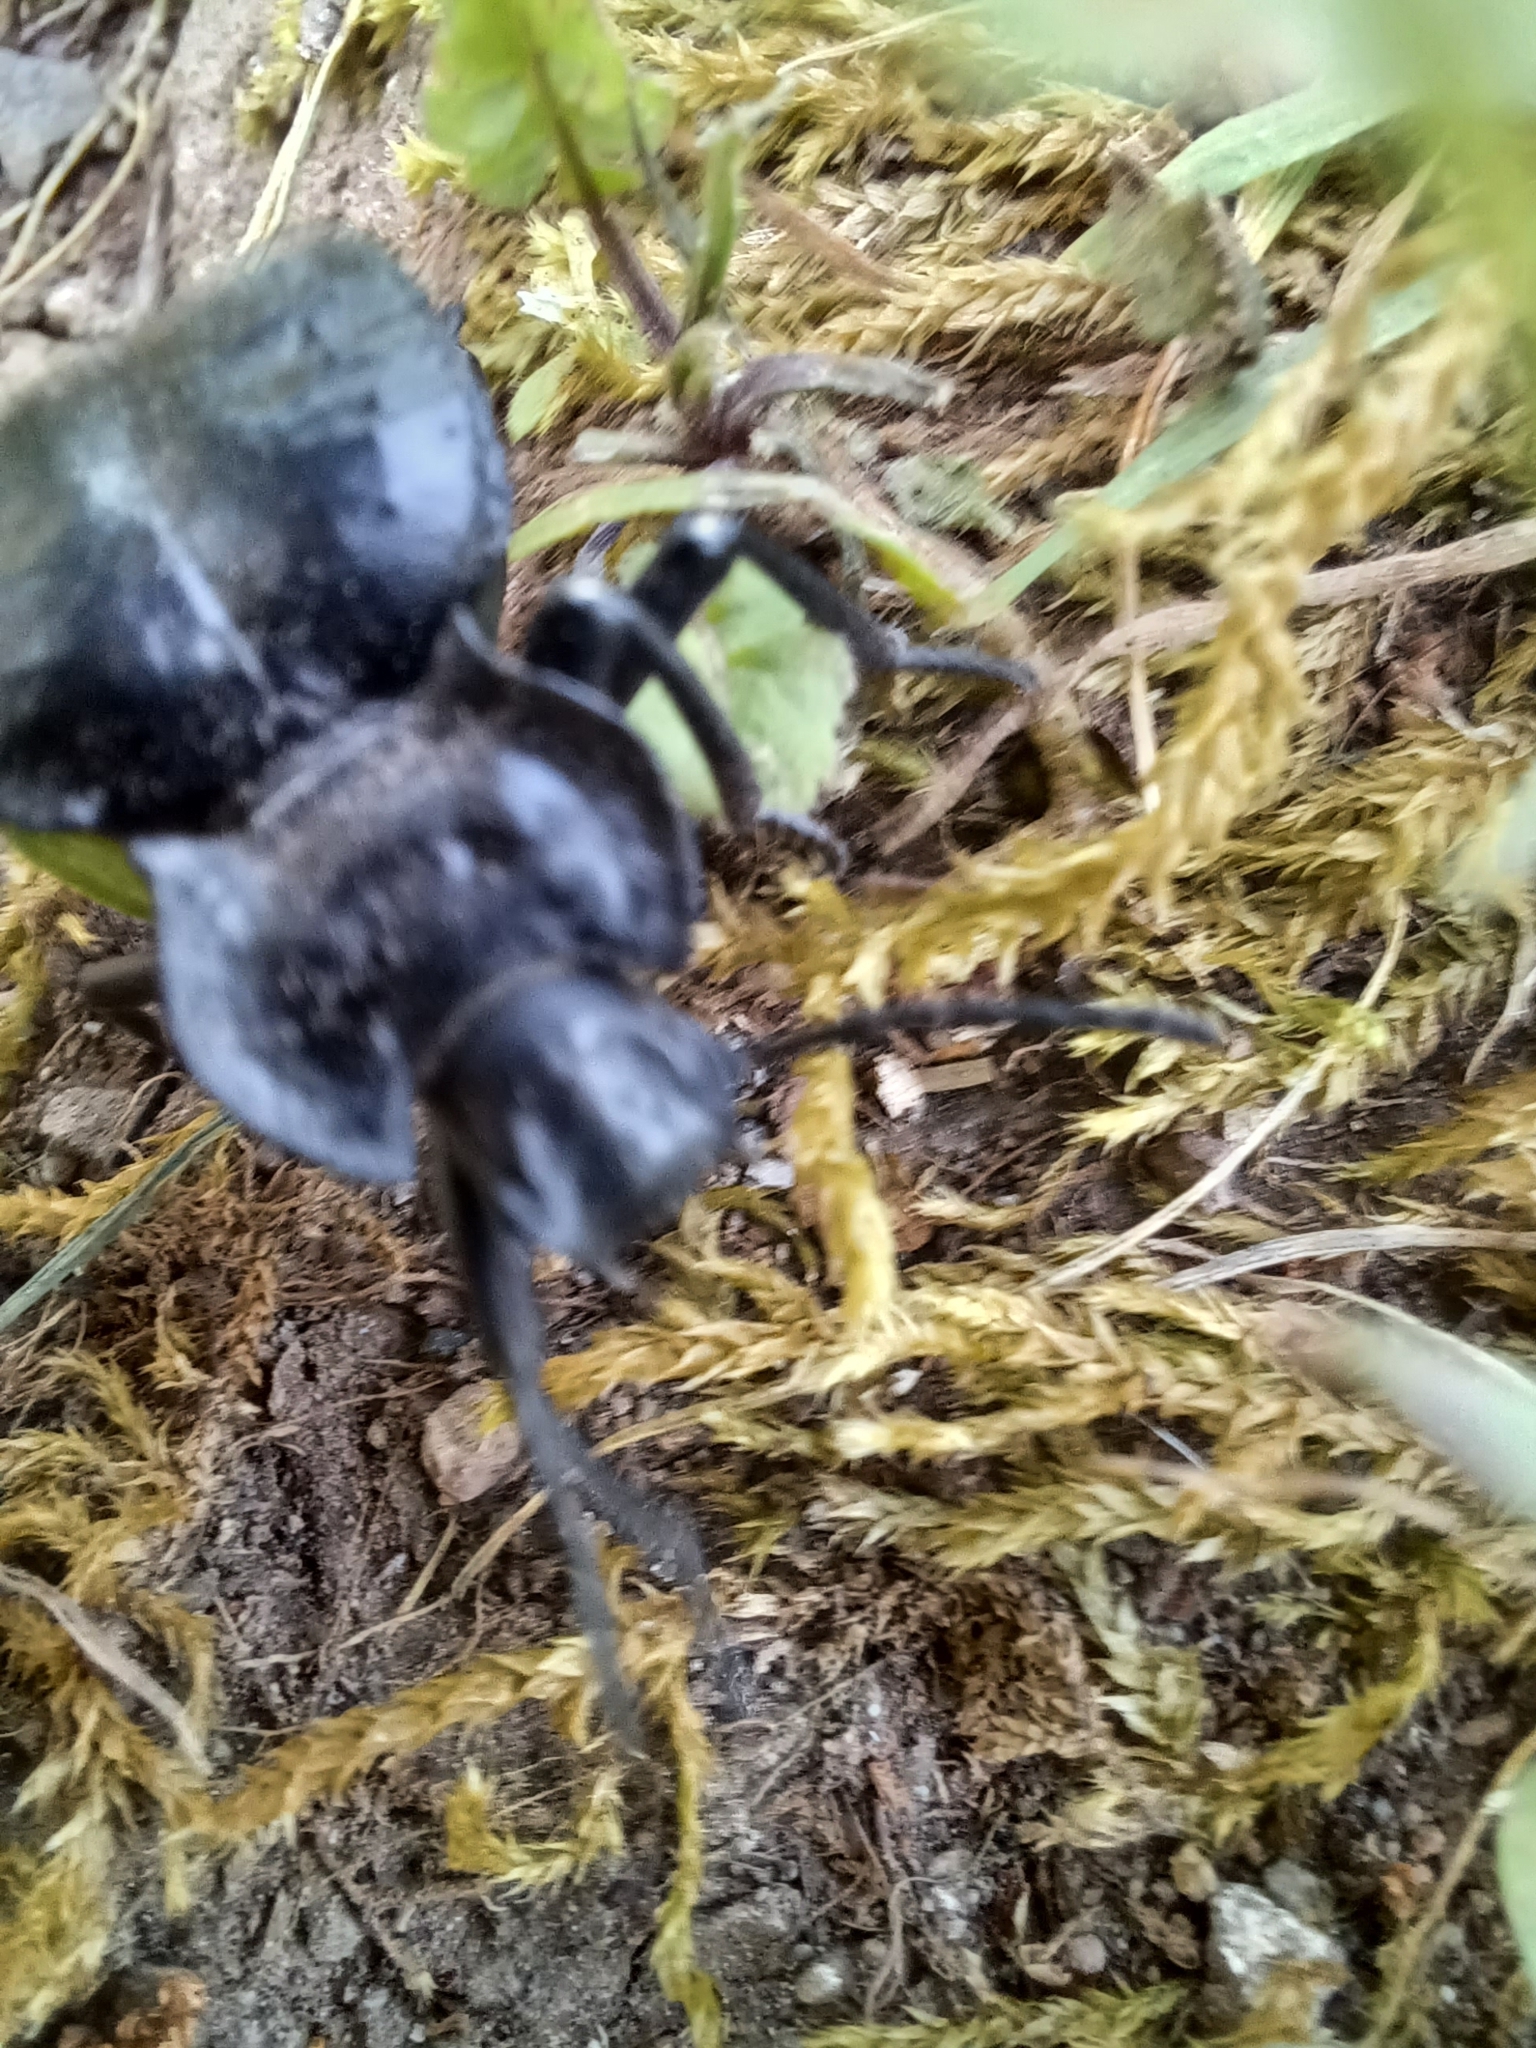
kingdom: Animalia
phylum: Arthropoda
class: Insecta
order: Coleoptera
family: Tenebrionidae
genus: Akis
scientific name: Akis bacarozzo
